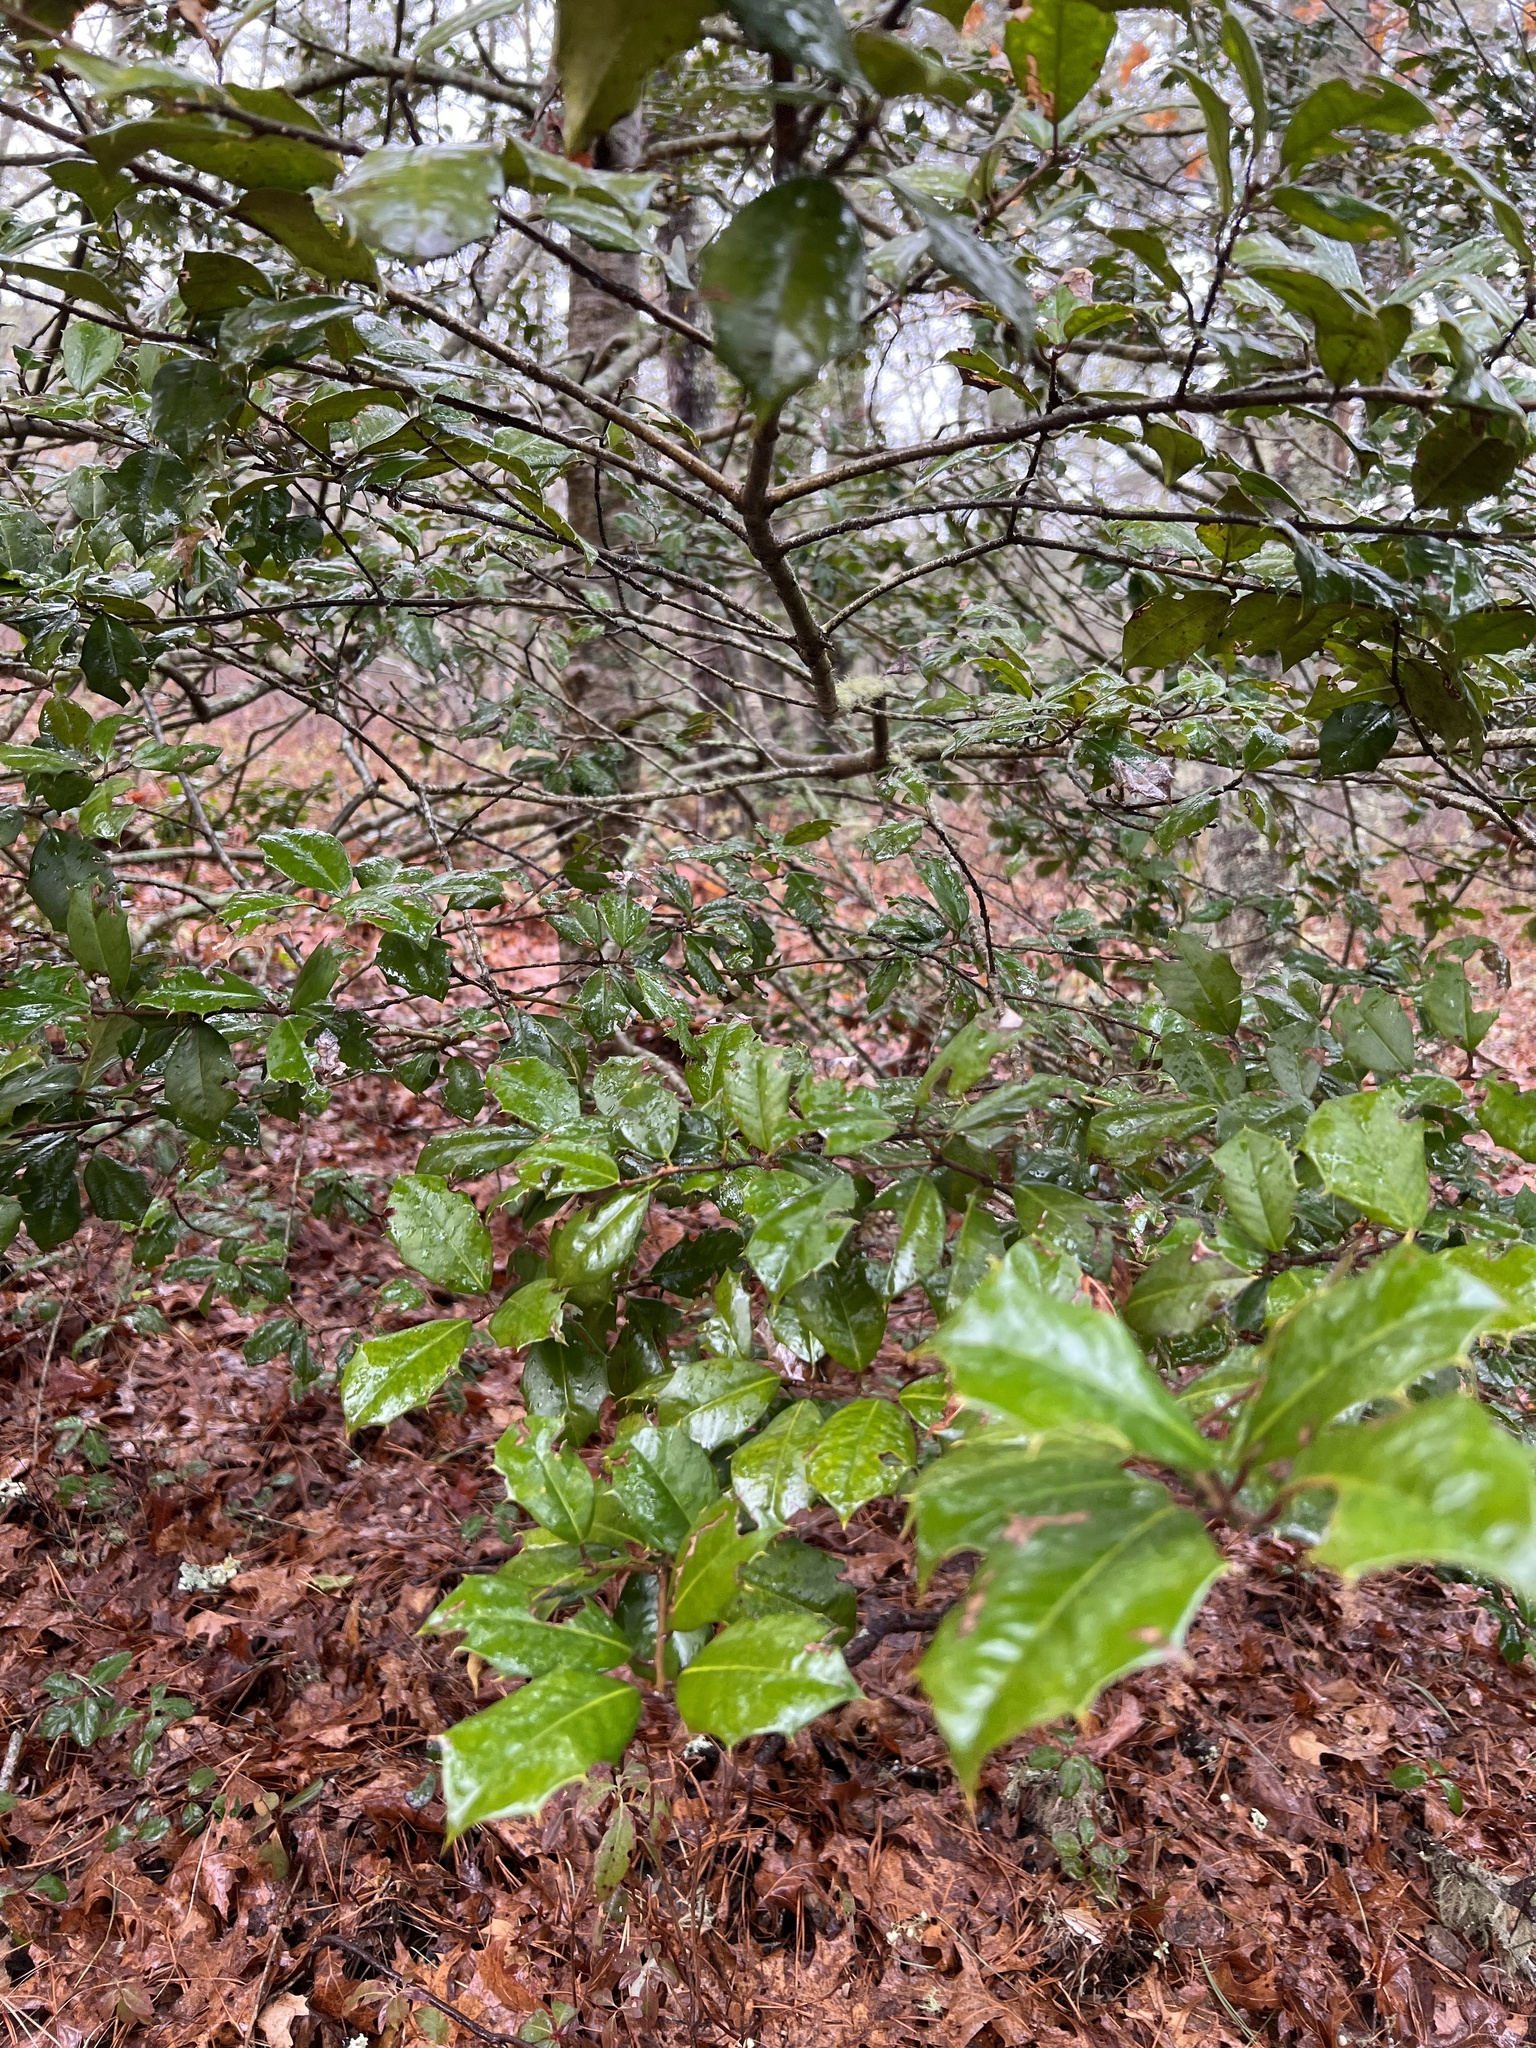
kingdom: Plantae
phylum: Tracheophyta
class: Magnoliopsida
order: Aquifoliales
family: Aquifoliaceae
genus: Ilex
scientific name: Ilex opaca
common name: American holly
